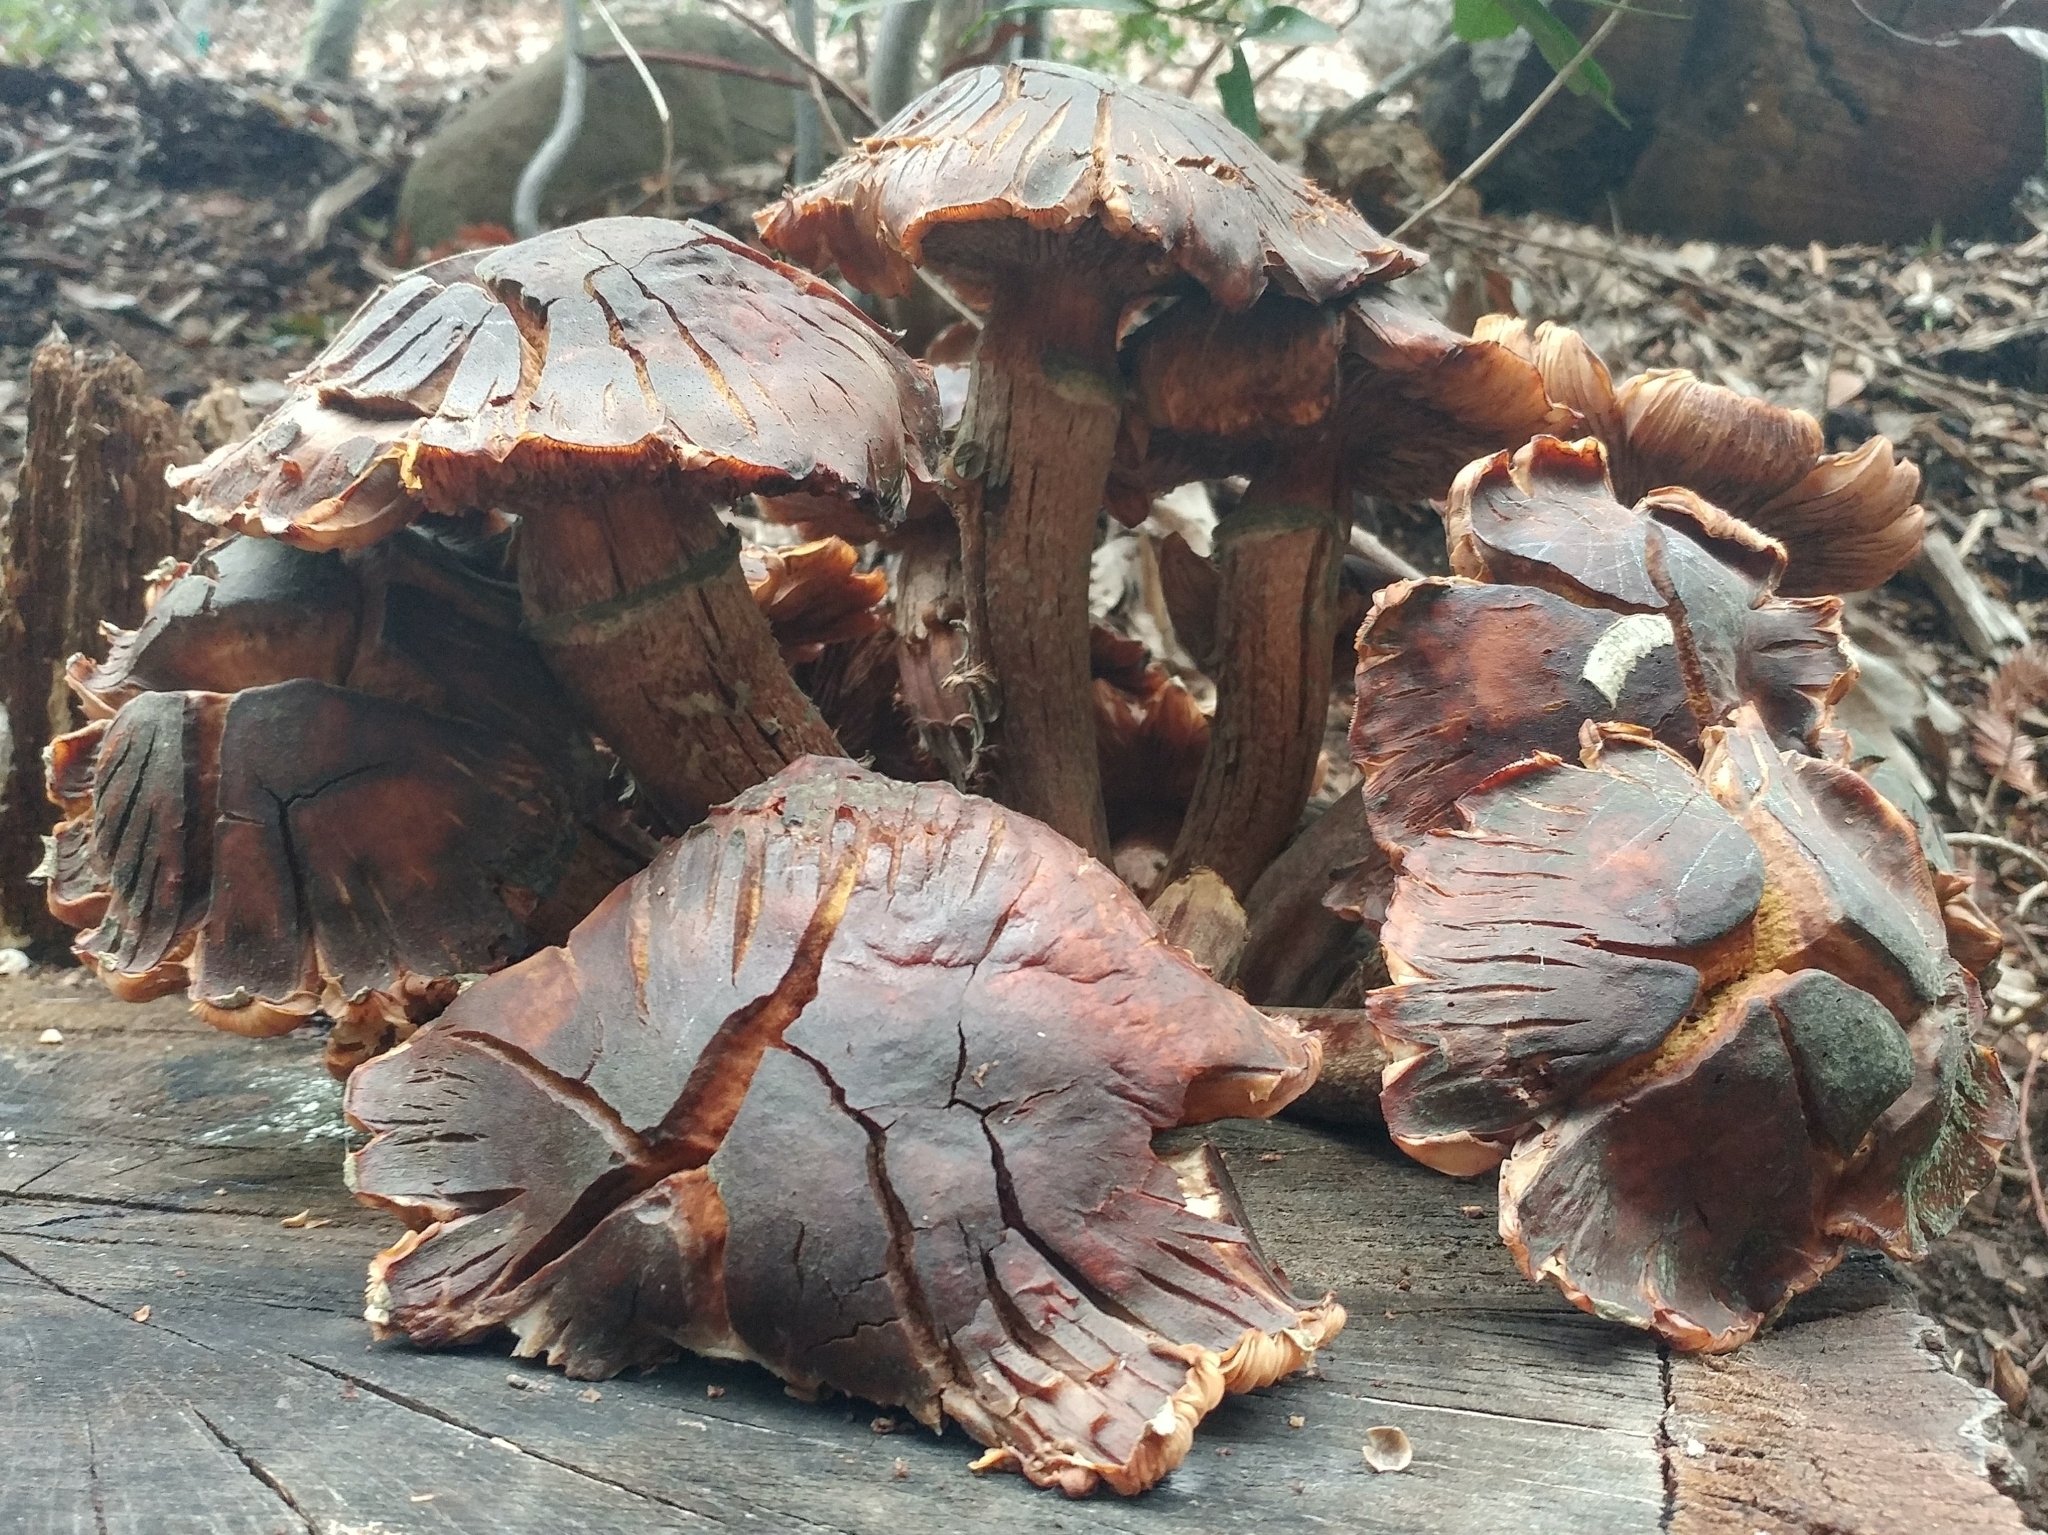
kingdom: Fungi
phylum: Basidiomycota
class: Agaricomycetes
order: Agaricales
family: Physalacriaceae
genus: Armillaria
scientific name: Armillaria mellea
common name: Honey fungus
